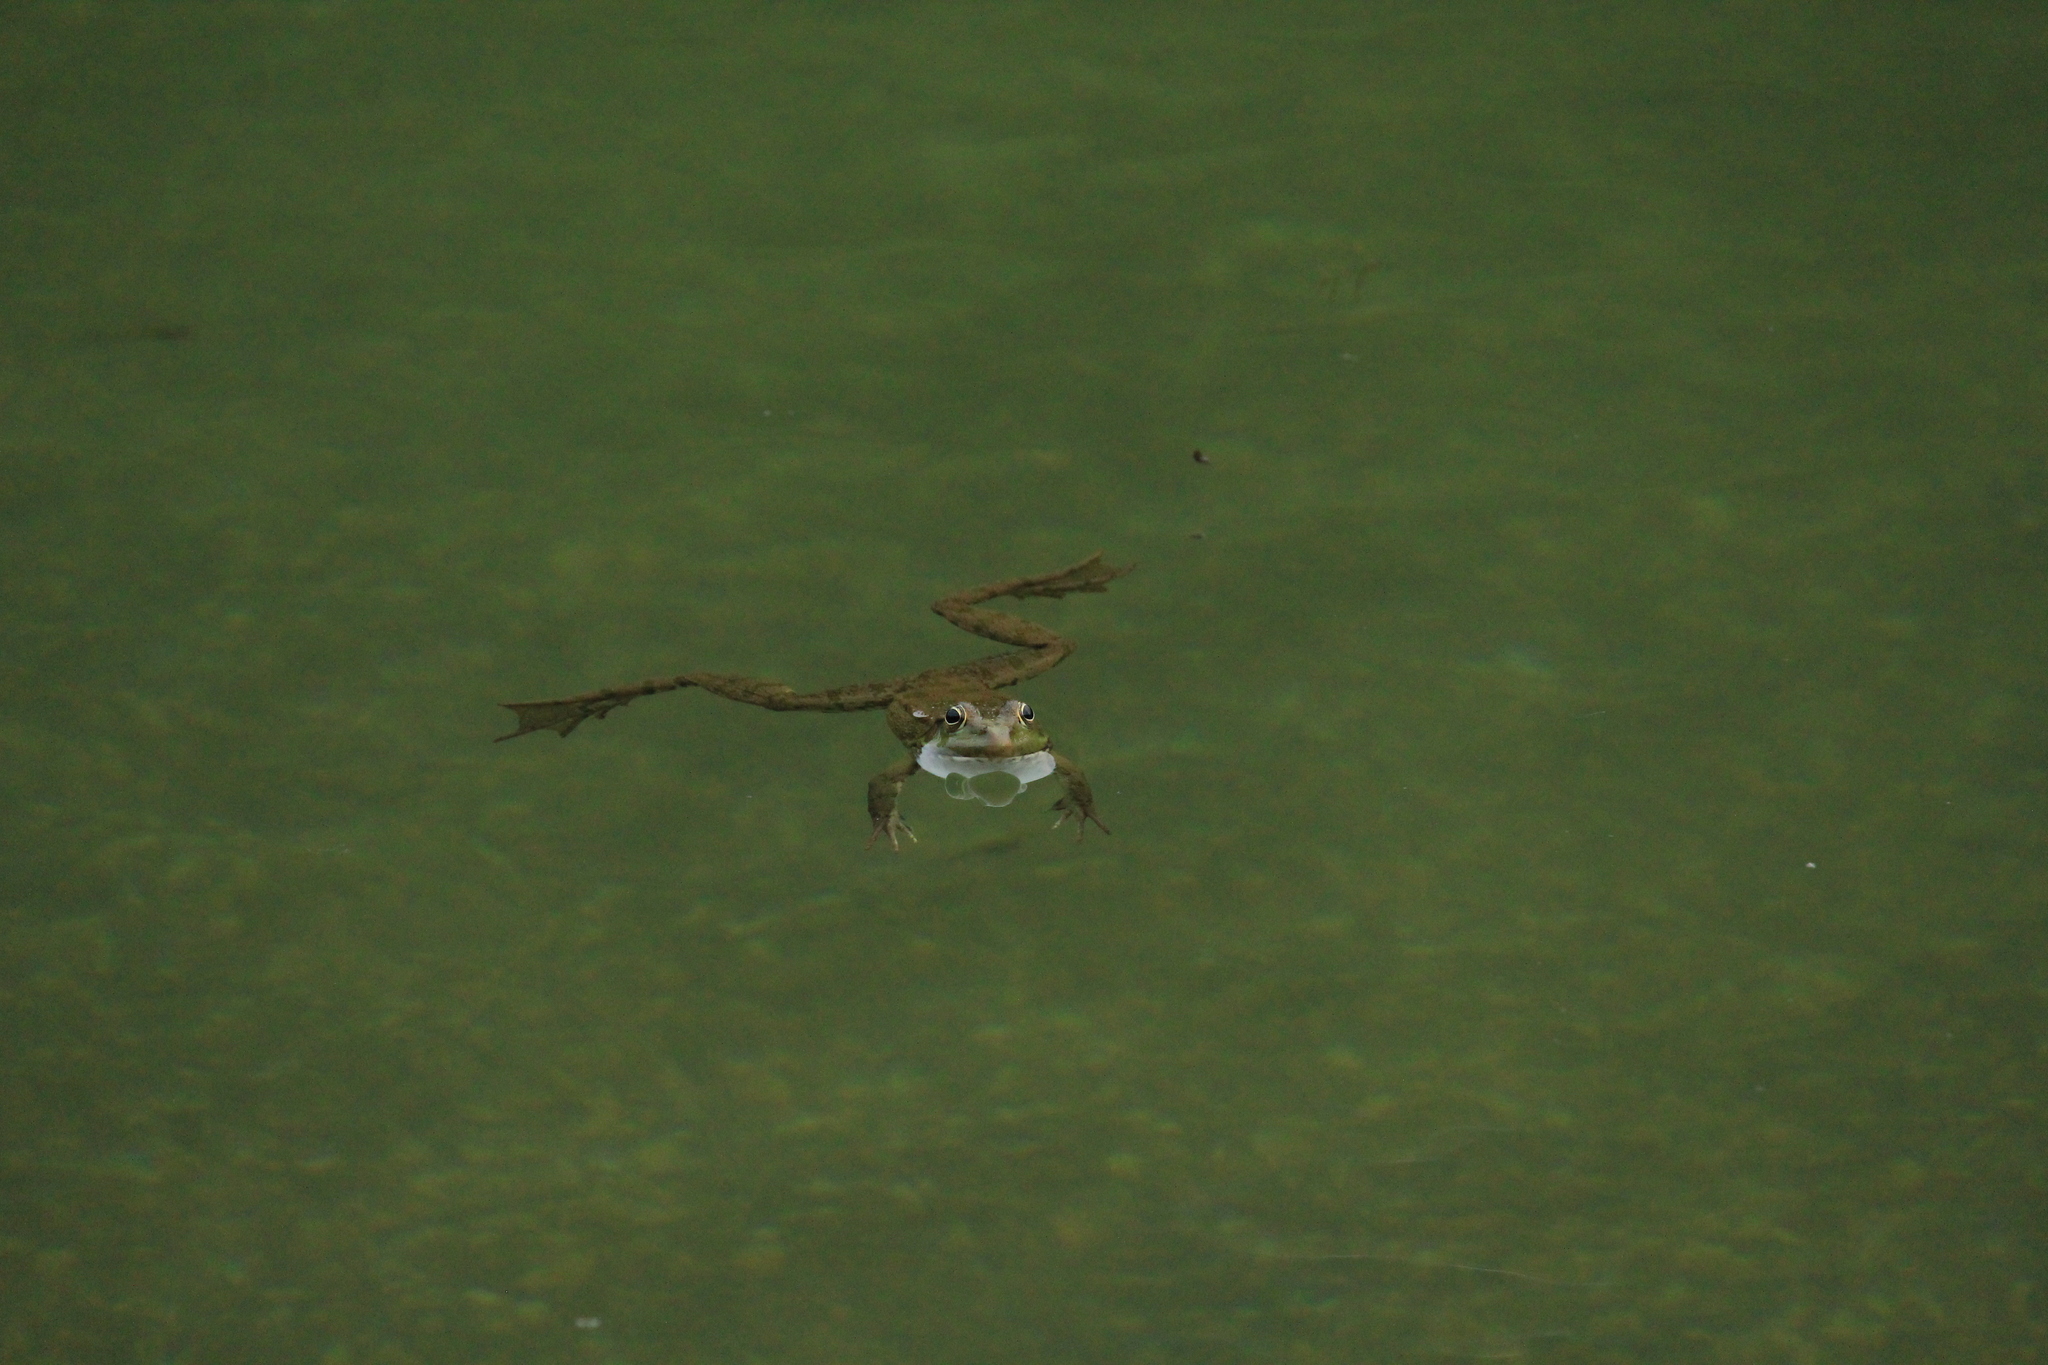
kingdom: Animalia
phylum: Chordata
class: Amphibia
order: Anura
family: Ranidae
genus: Pelophylax
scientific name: Pelophylax ridibundus
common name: Marsh frog
